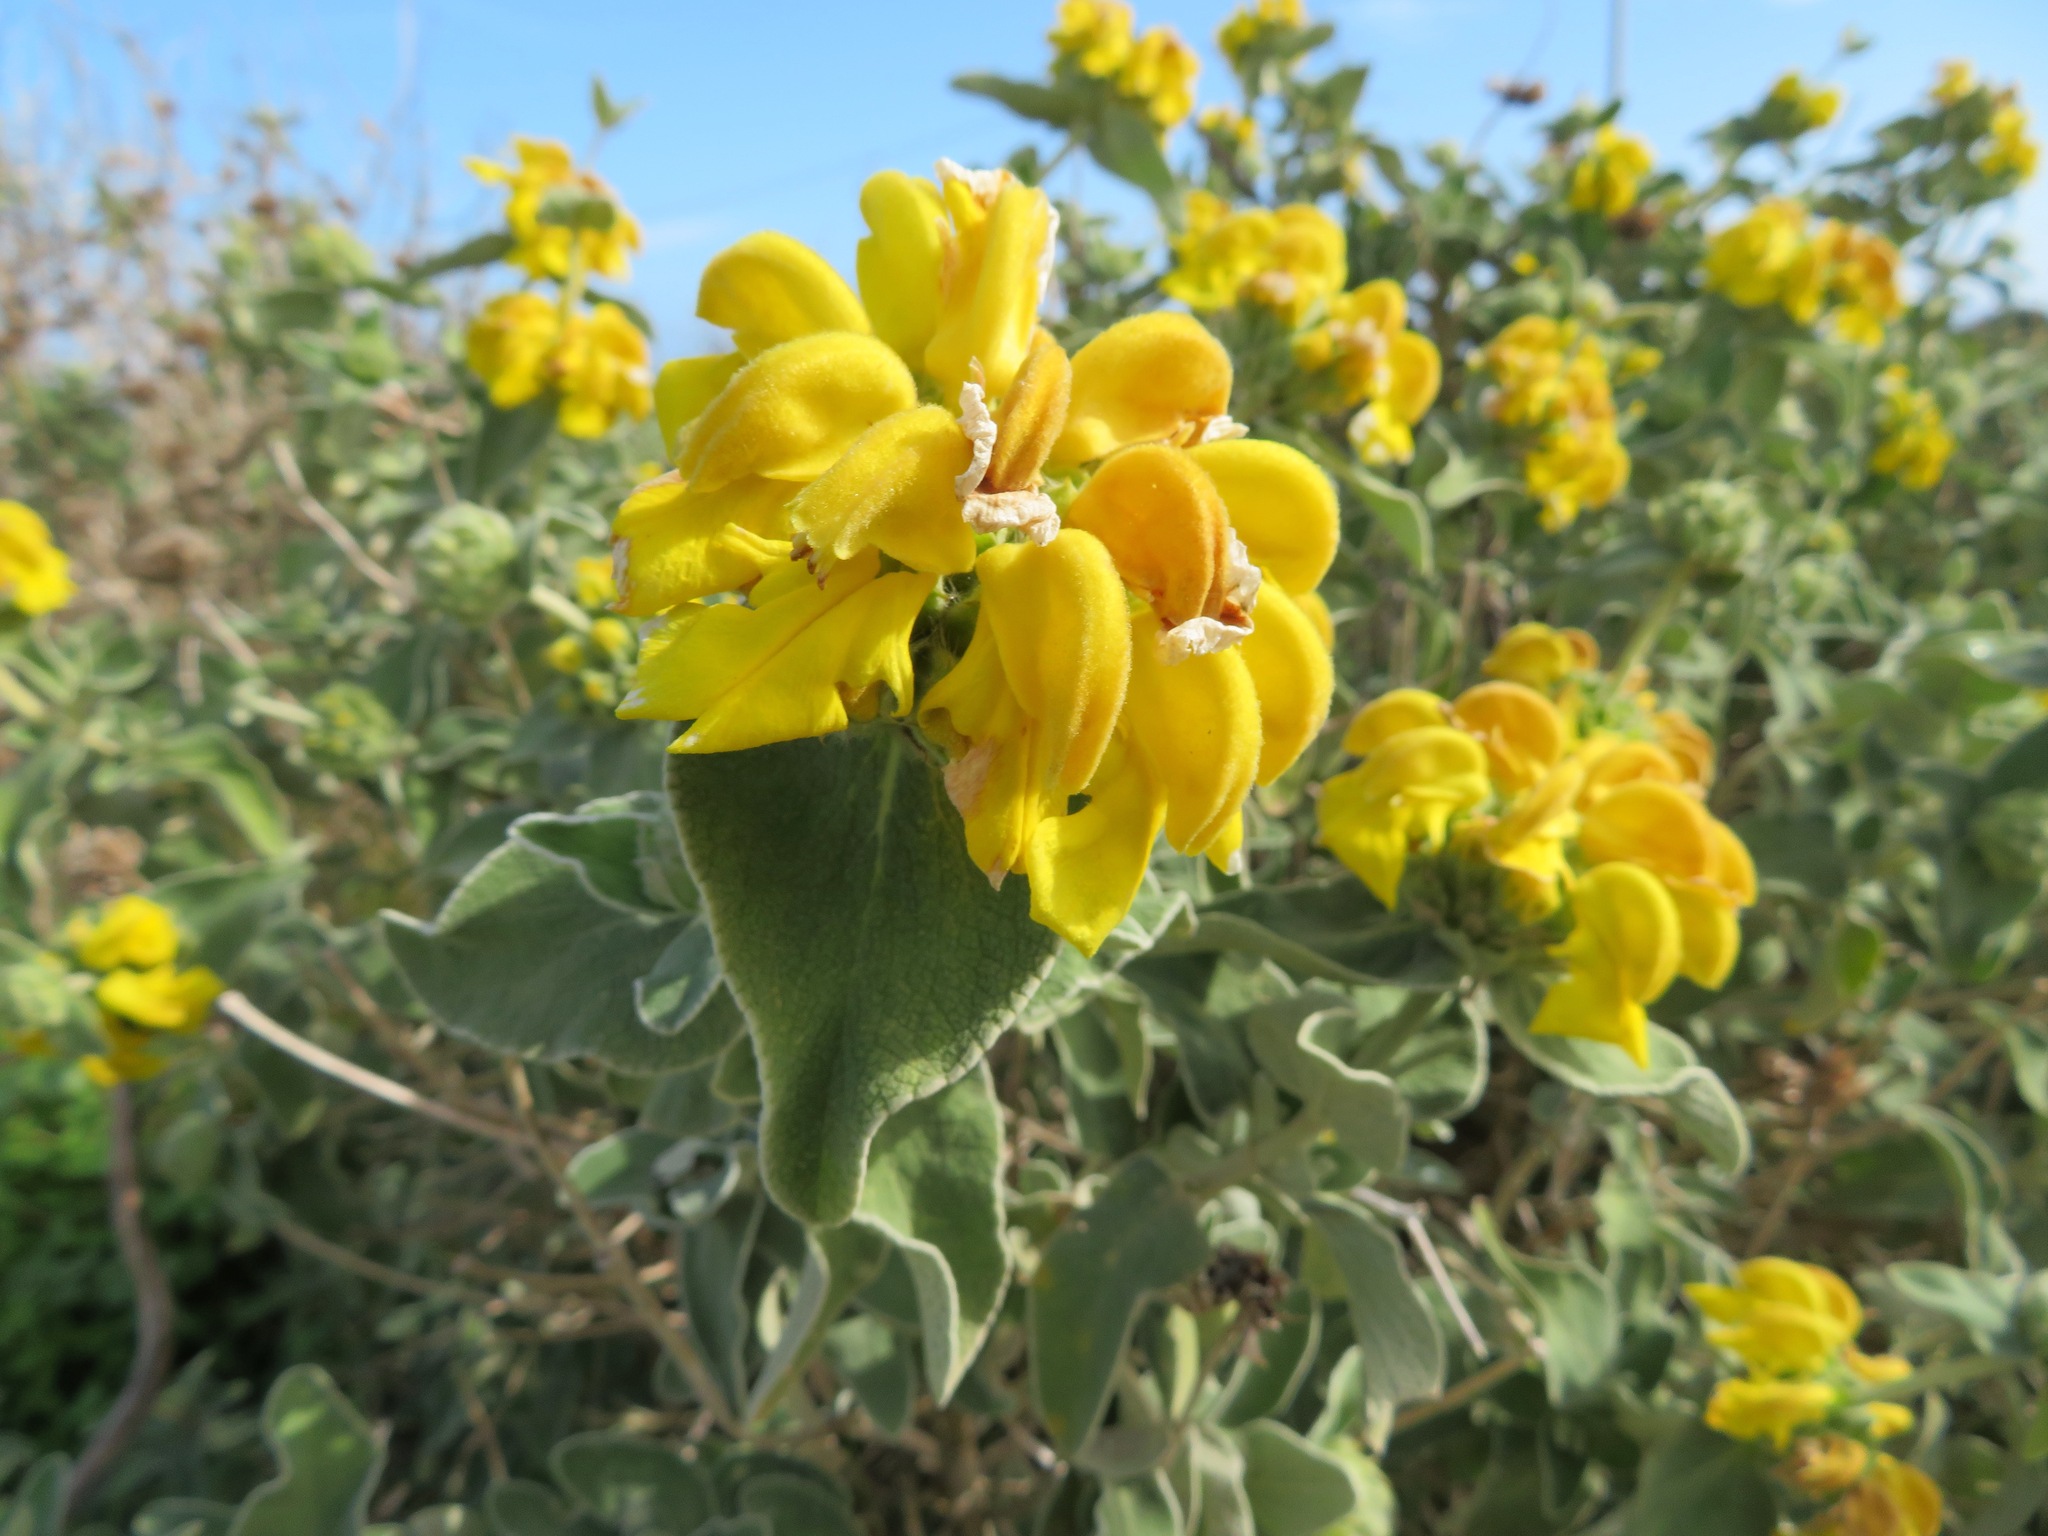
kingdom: Plantae
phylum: Tracheophyta
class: Magnoliopsida
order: Lamiales
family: Lamiaceae
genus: Phlomis
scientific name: Phlomis fruticosa
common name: Jerusalem sage
